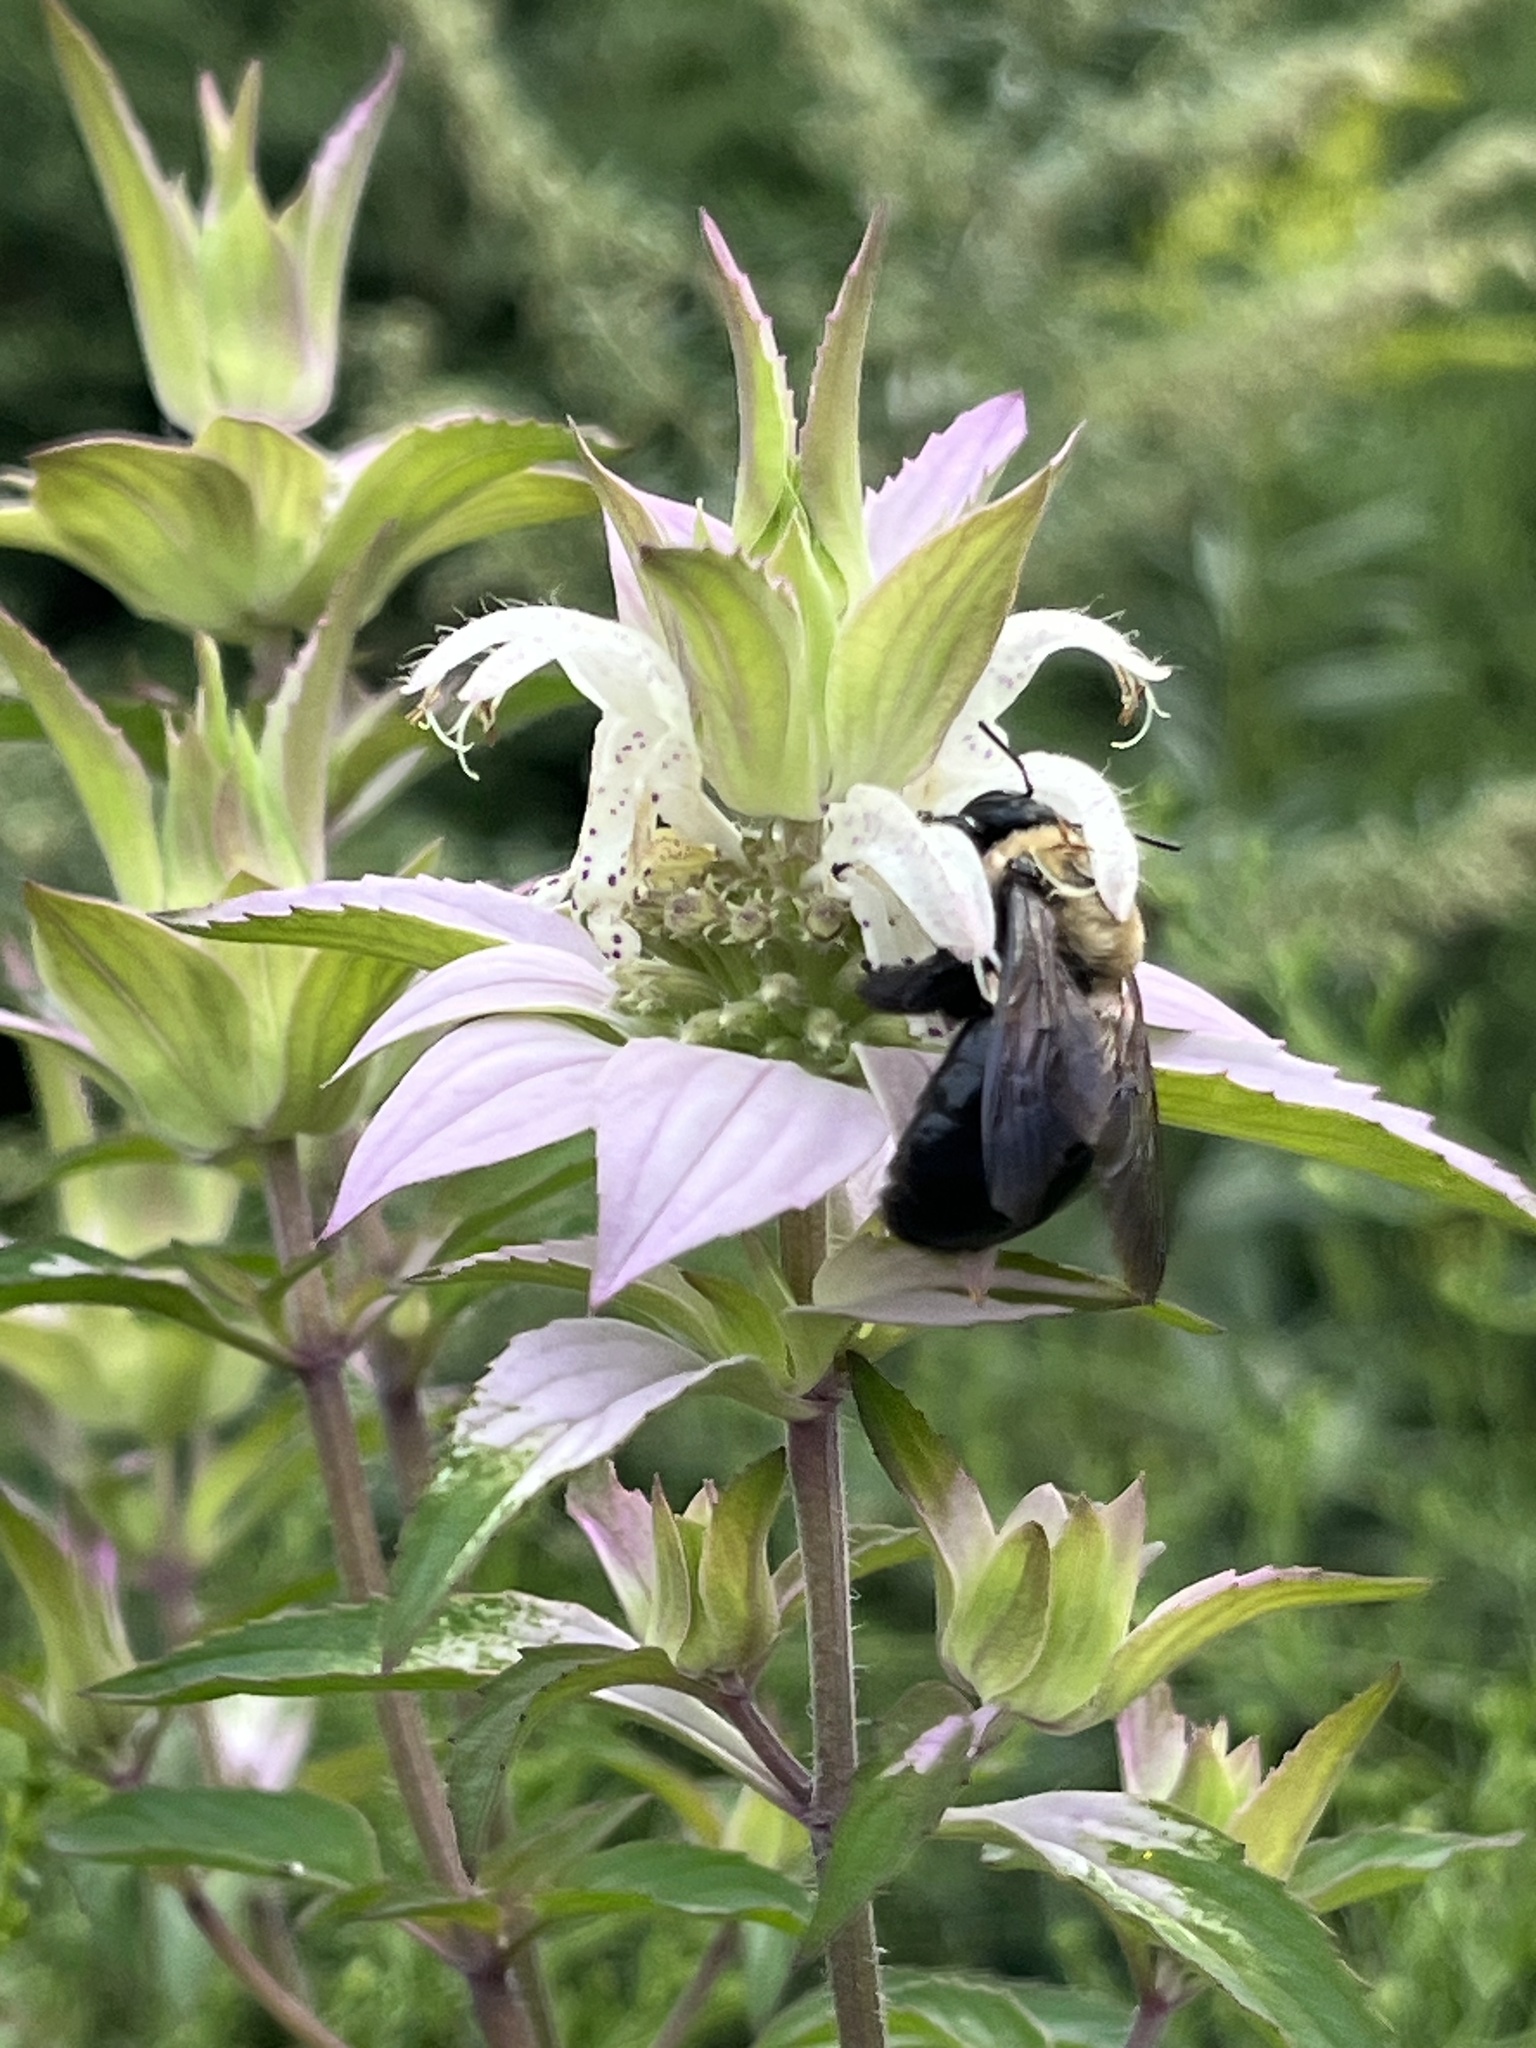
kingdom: Animalia
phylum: Arthropoda
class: Insecta
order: Hymenoptera
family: Apidae
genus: Xylocopa
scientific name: Xylocopa virginica
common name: Carpenter bee
